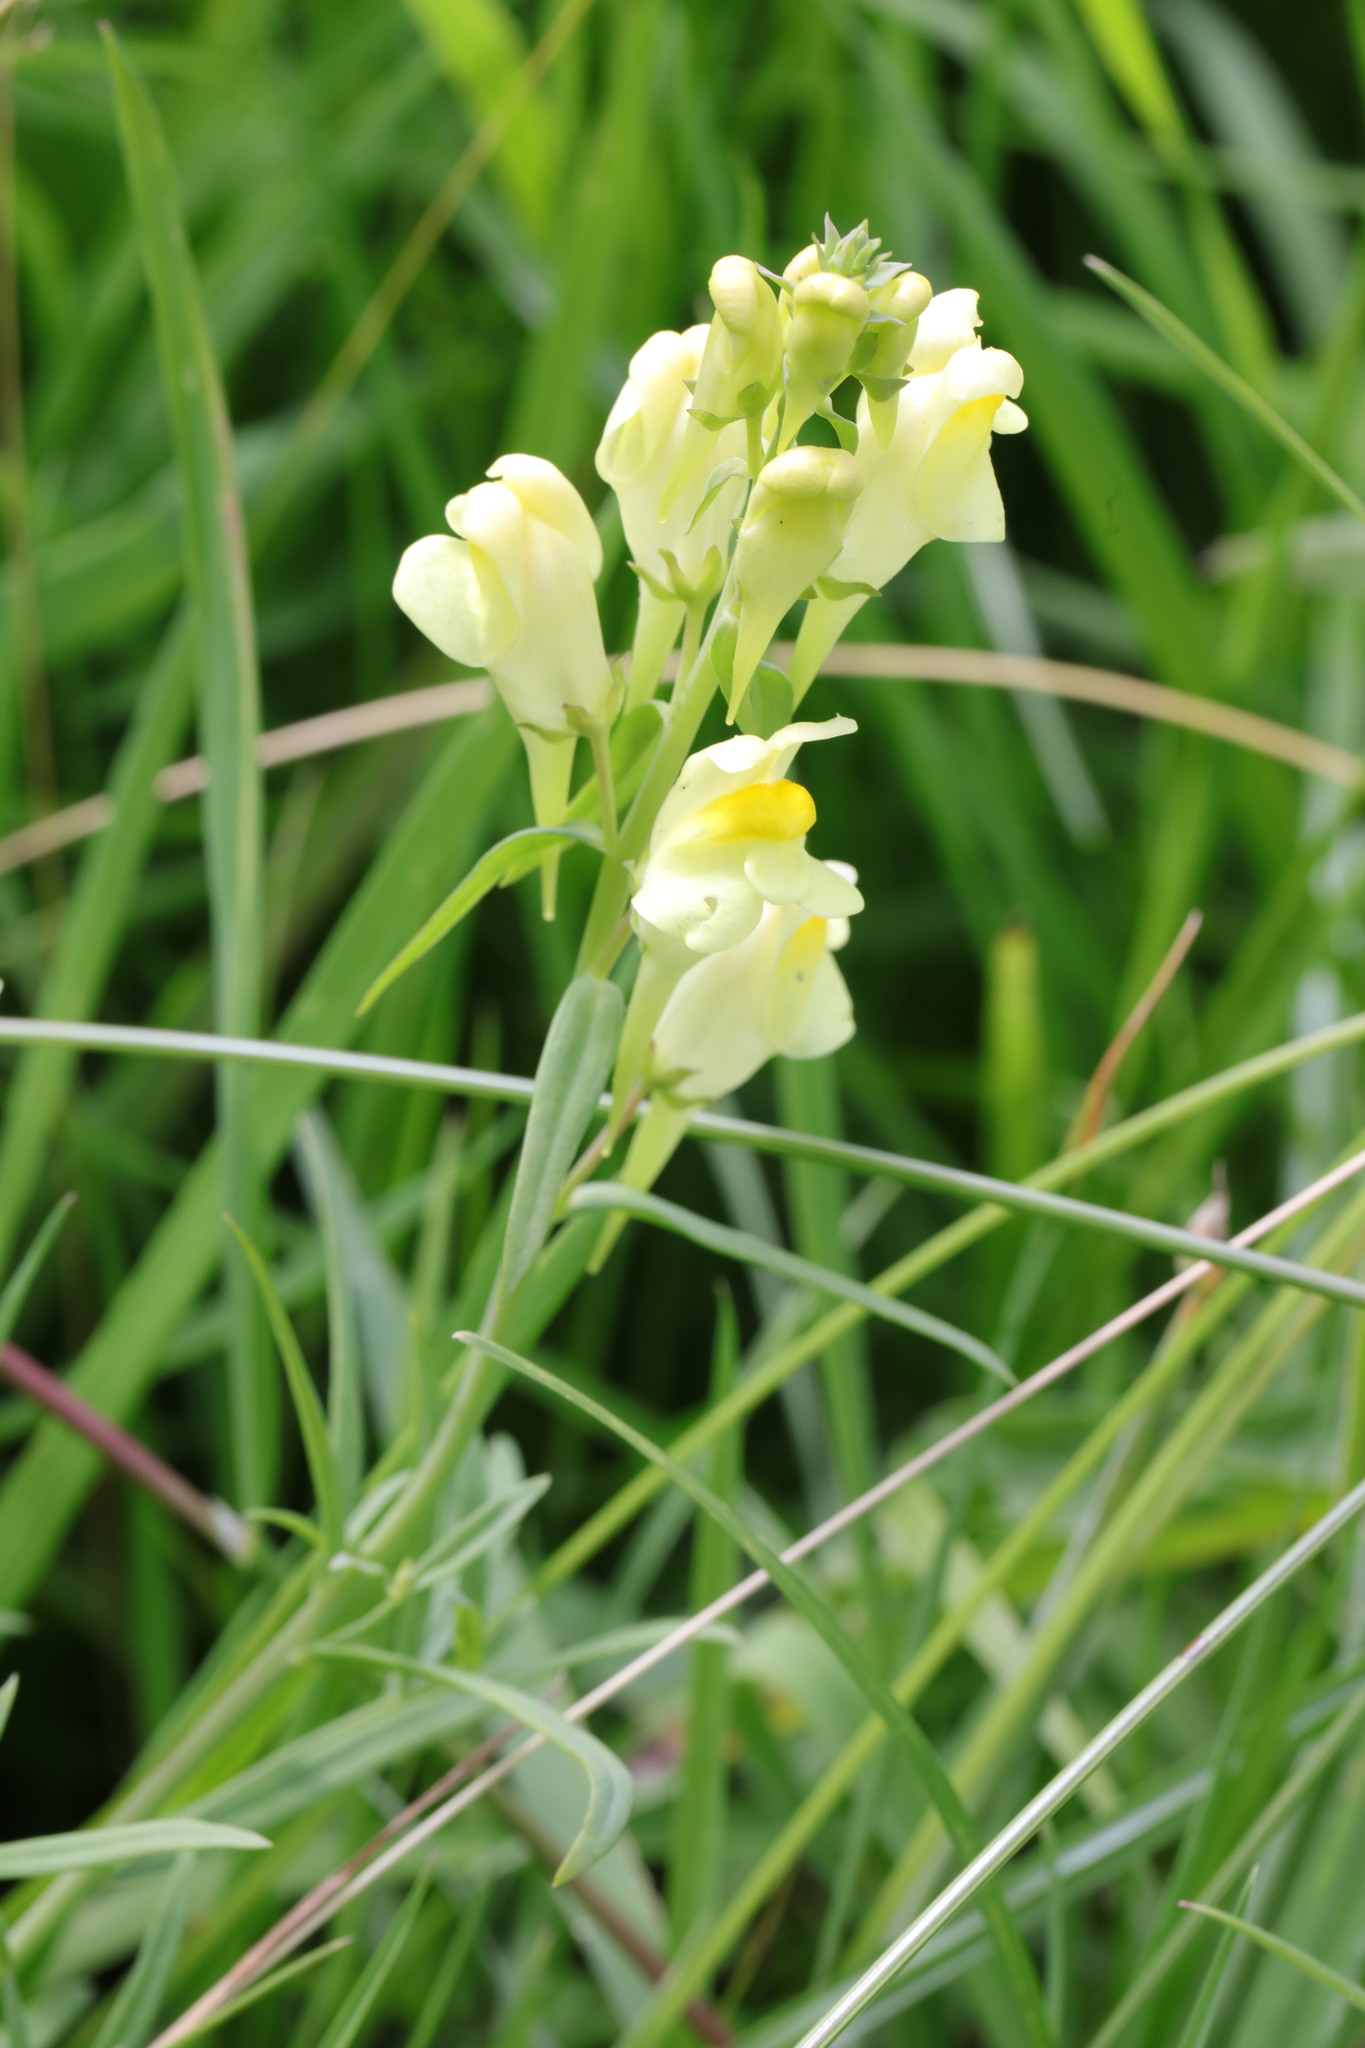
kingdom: Plantae
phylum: Tracheophyta
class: Magnoliopsida
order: Lamiales
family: Plantaginaceae
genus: Linaria
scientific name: Linaria vulgaris
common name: Butter and eggs
